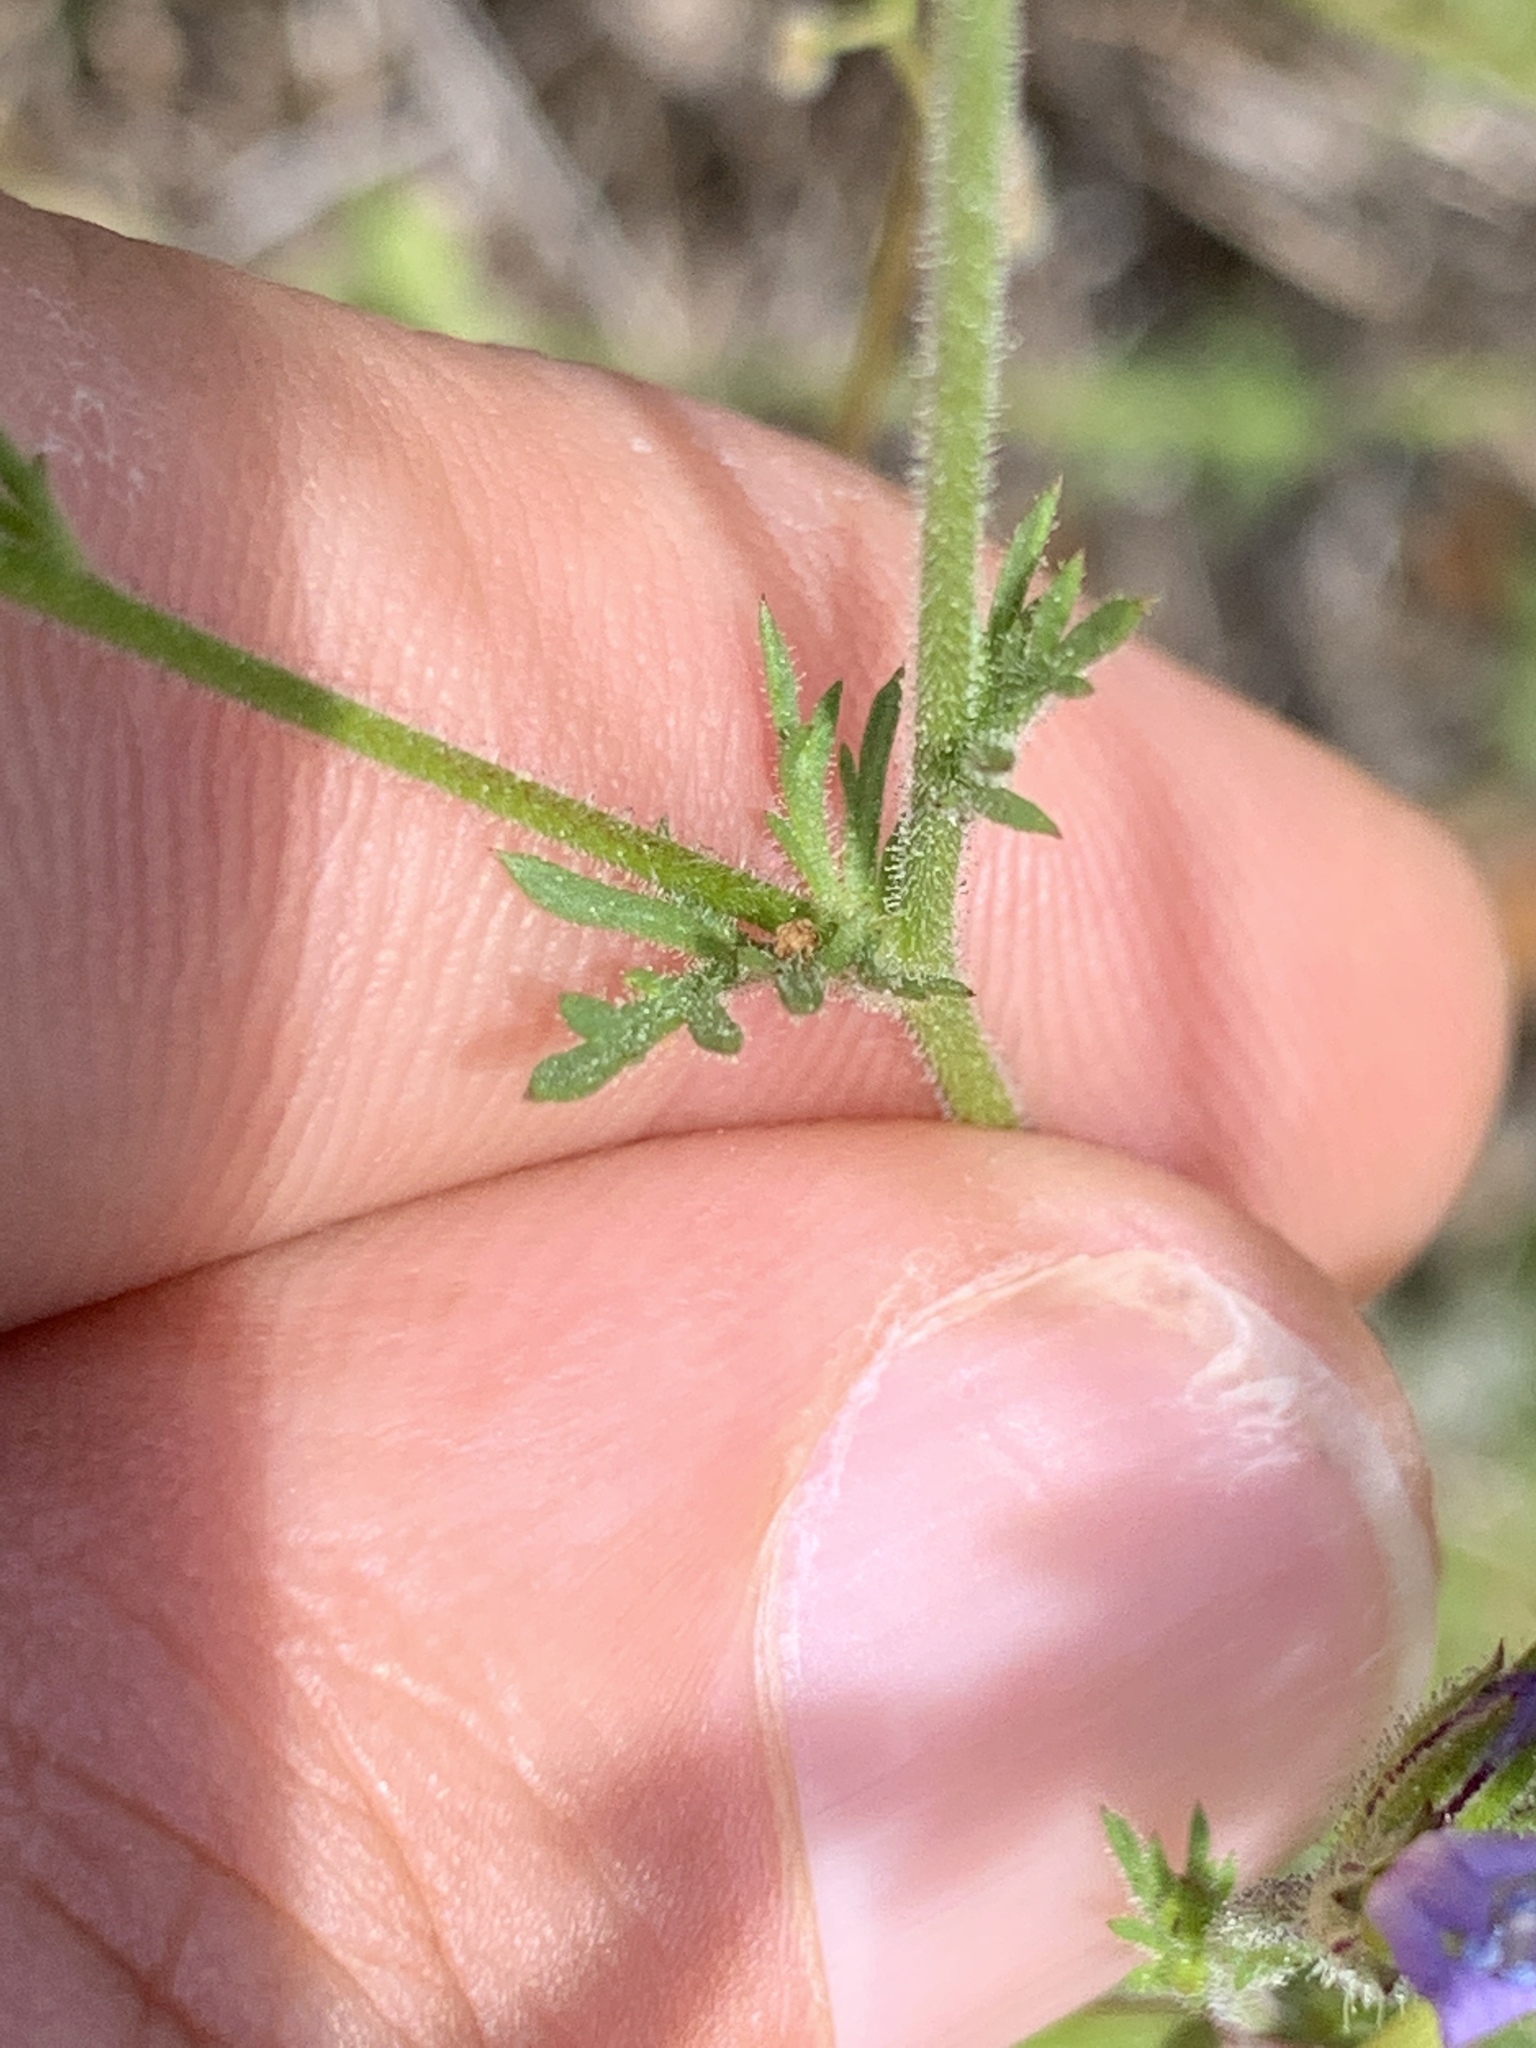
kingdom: Plantae
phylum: Tracheophyta
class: Magnoliopsida
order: Ericales
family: Polemoniaceae
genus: Gilia
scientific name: Gilia clivorum
